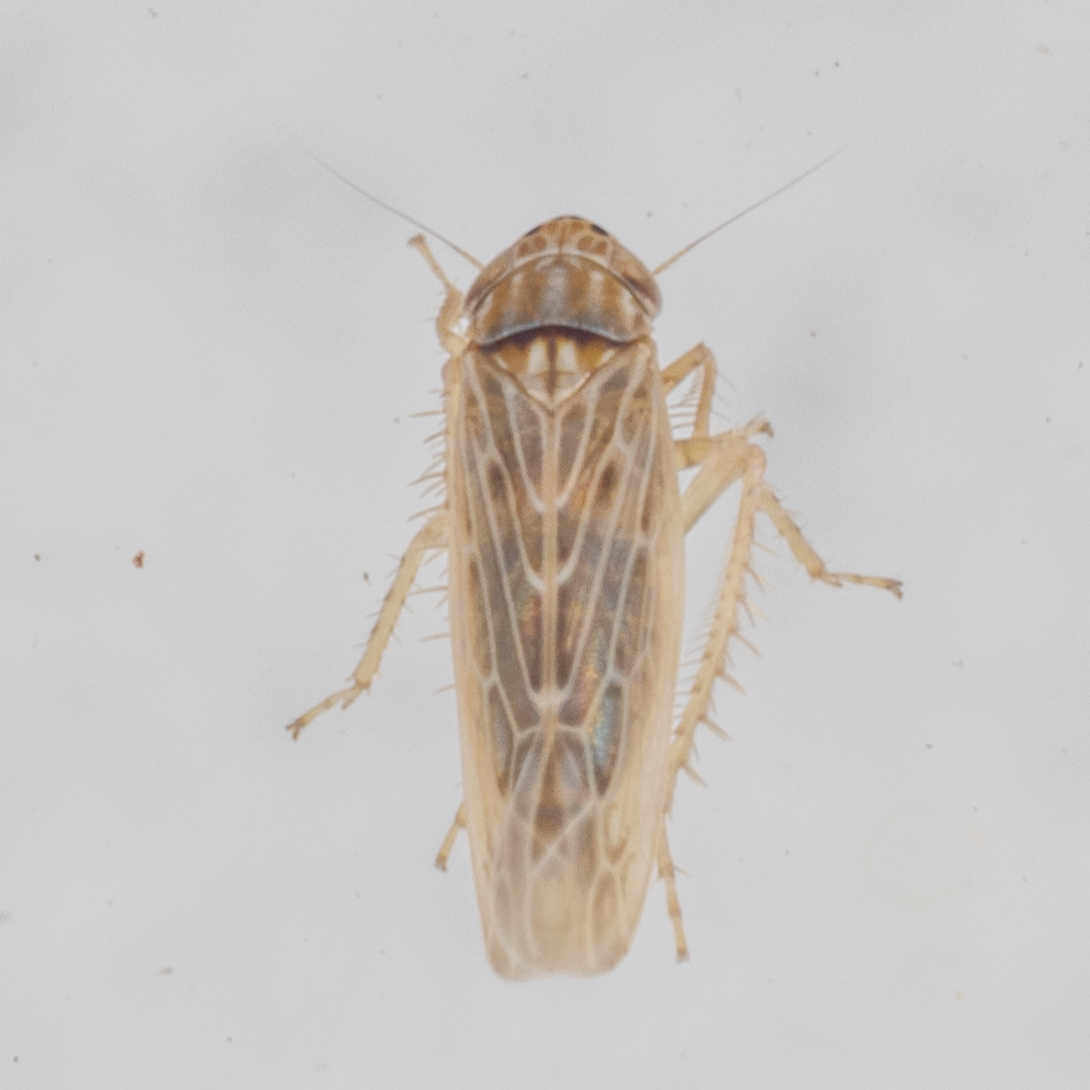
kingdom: Animalia
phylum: Arthropoda
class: Insecta
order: Hemiptera
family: Cicadellidae
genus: Graminella
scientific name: Graminella sonora
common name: Lesser lawn leafhopper
